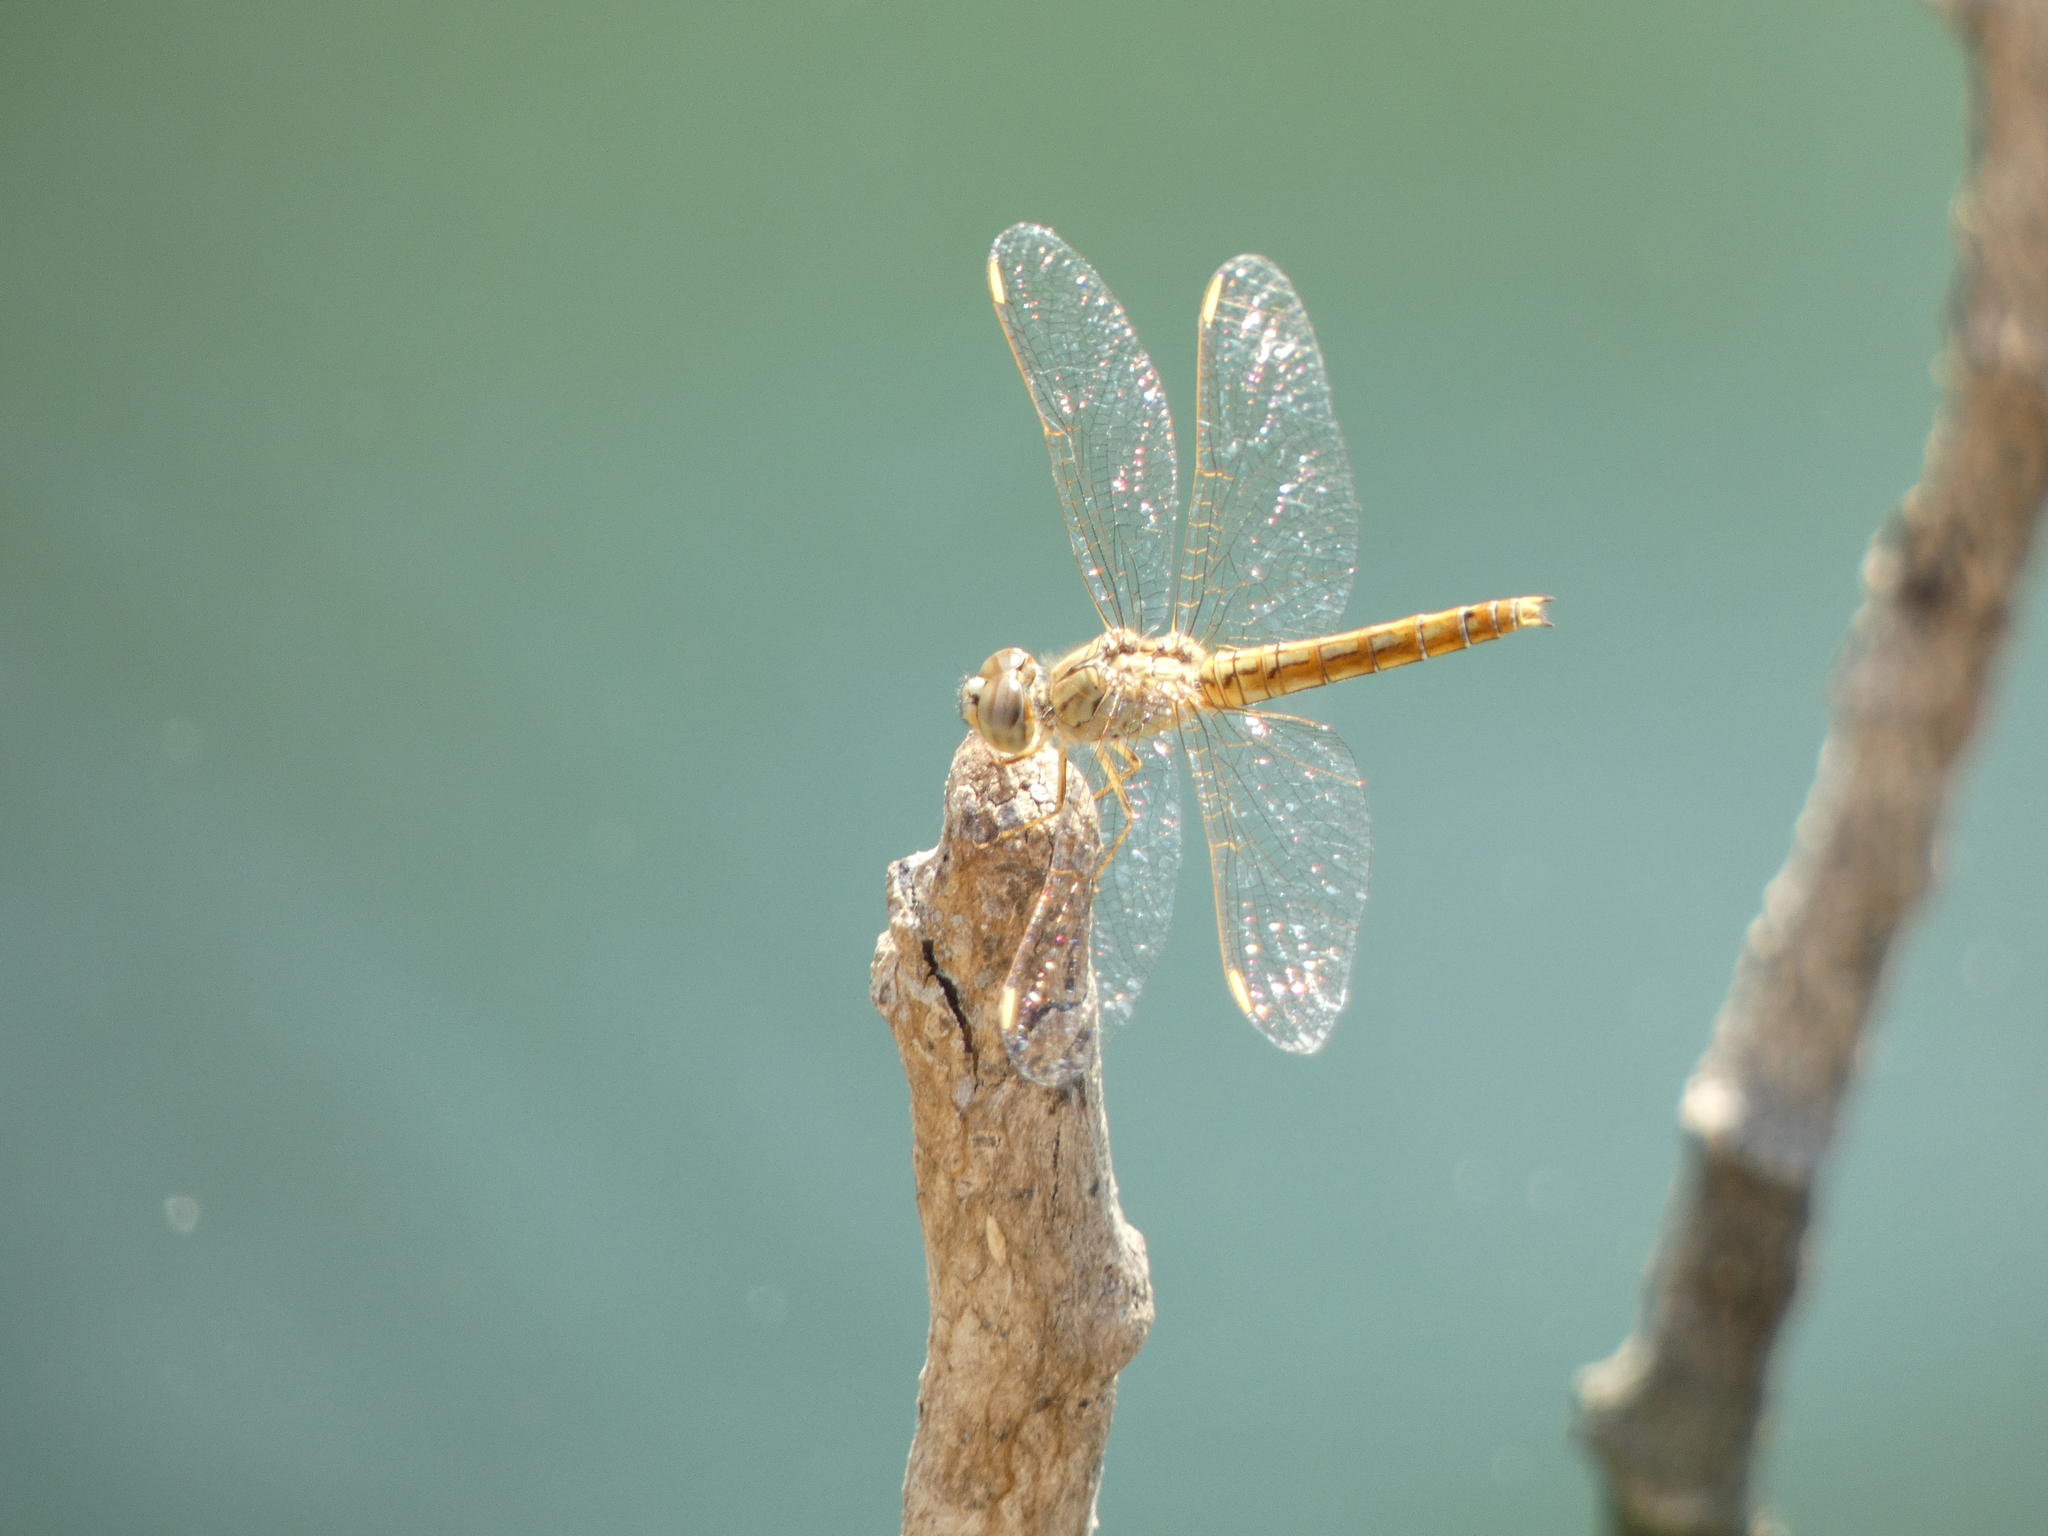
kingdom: Animalia
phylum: Arthropoda
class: Insecta
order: Odonata
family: Libellulidae
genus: Brachythemis
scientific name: Brachythemis contaminata
